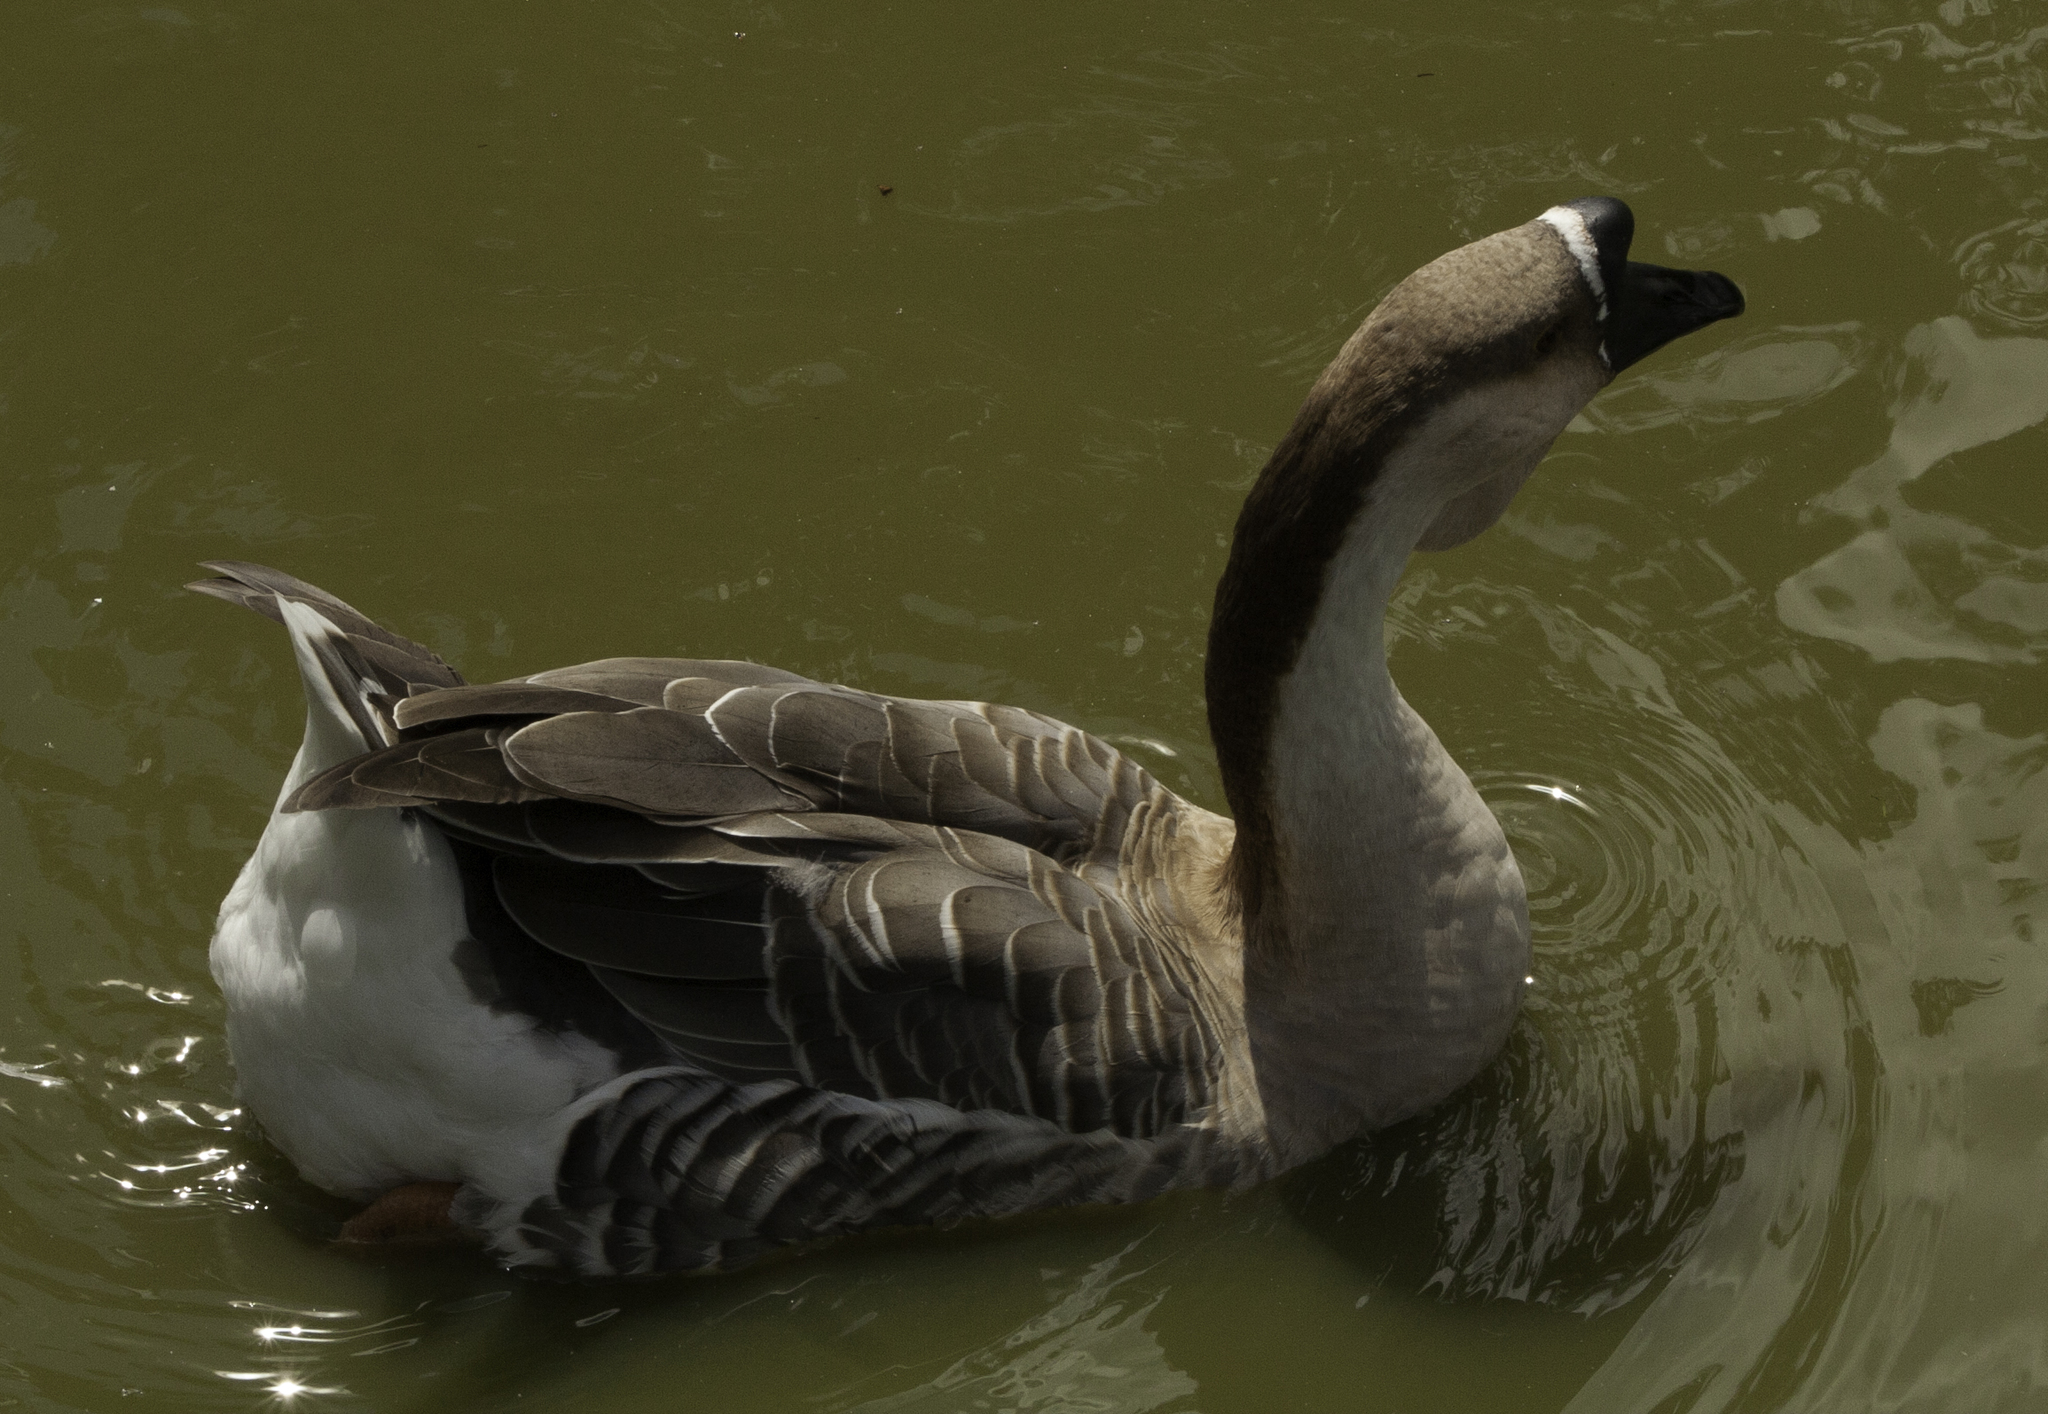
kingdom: Animalia
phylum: Chordata
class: Aves
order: Anseriformes
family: Anatidae
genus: Anser
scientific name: Anser cygnoides
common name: Swan goose
